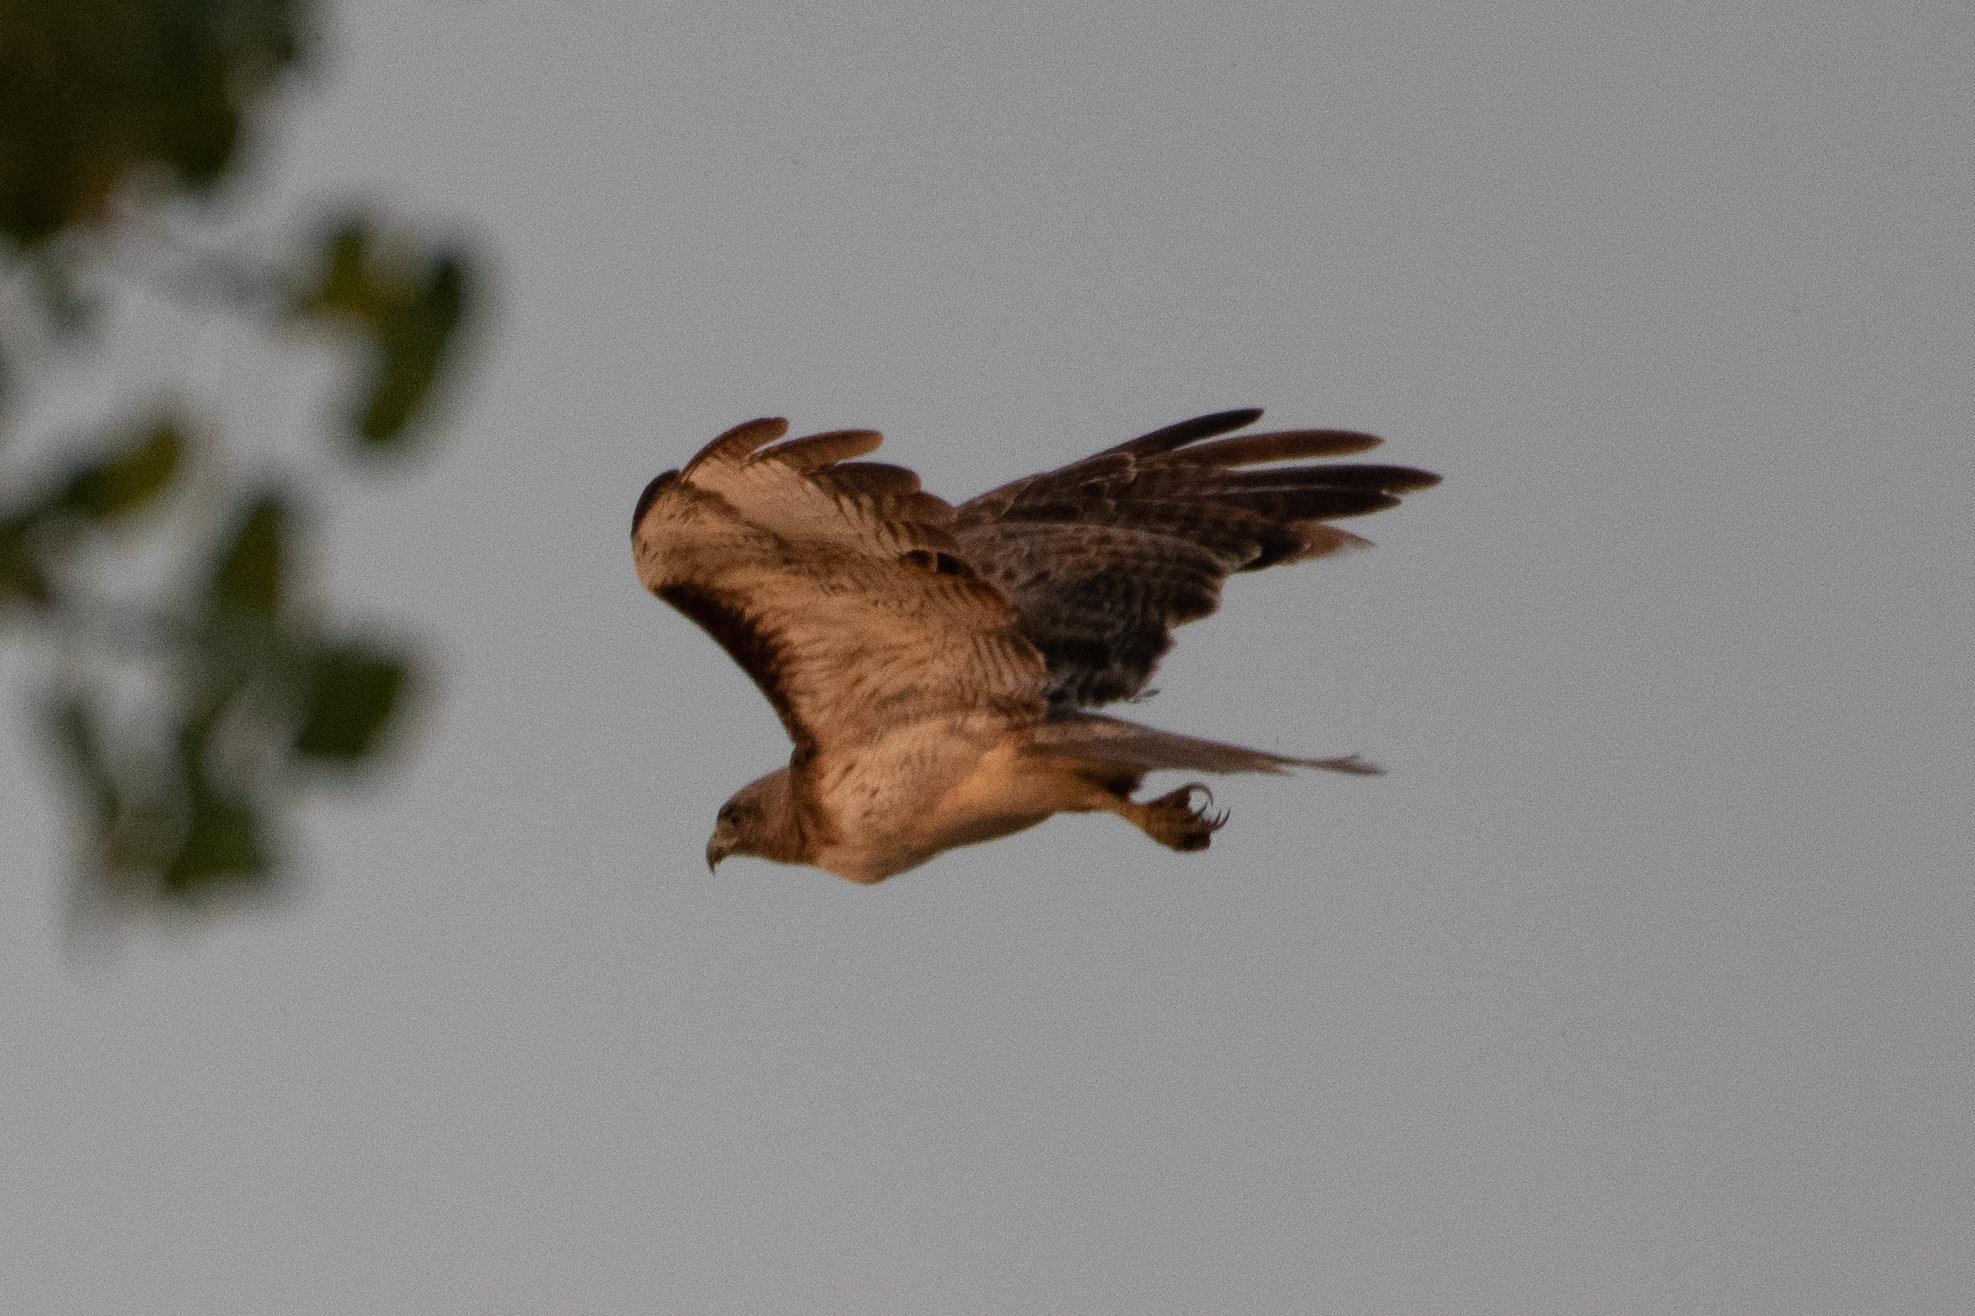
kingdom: Animalia
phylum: Chordata
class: Aves
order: Accipitriformes
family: Accipitridae
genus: Buteo
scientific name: Buteo jamaicensis
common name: Red-tailed hawk
